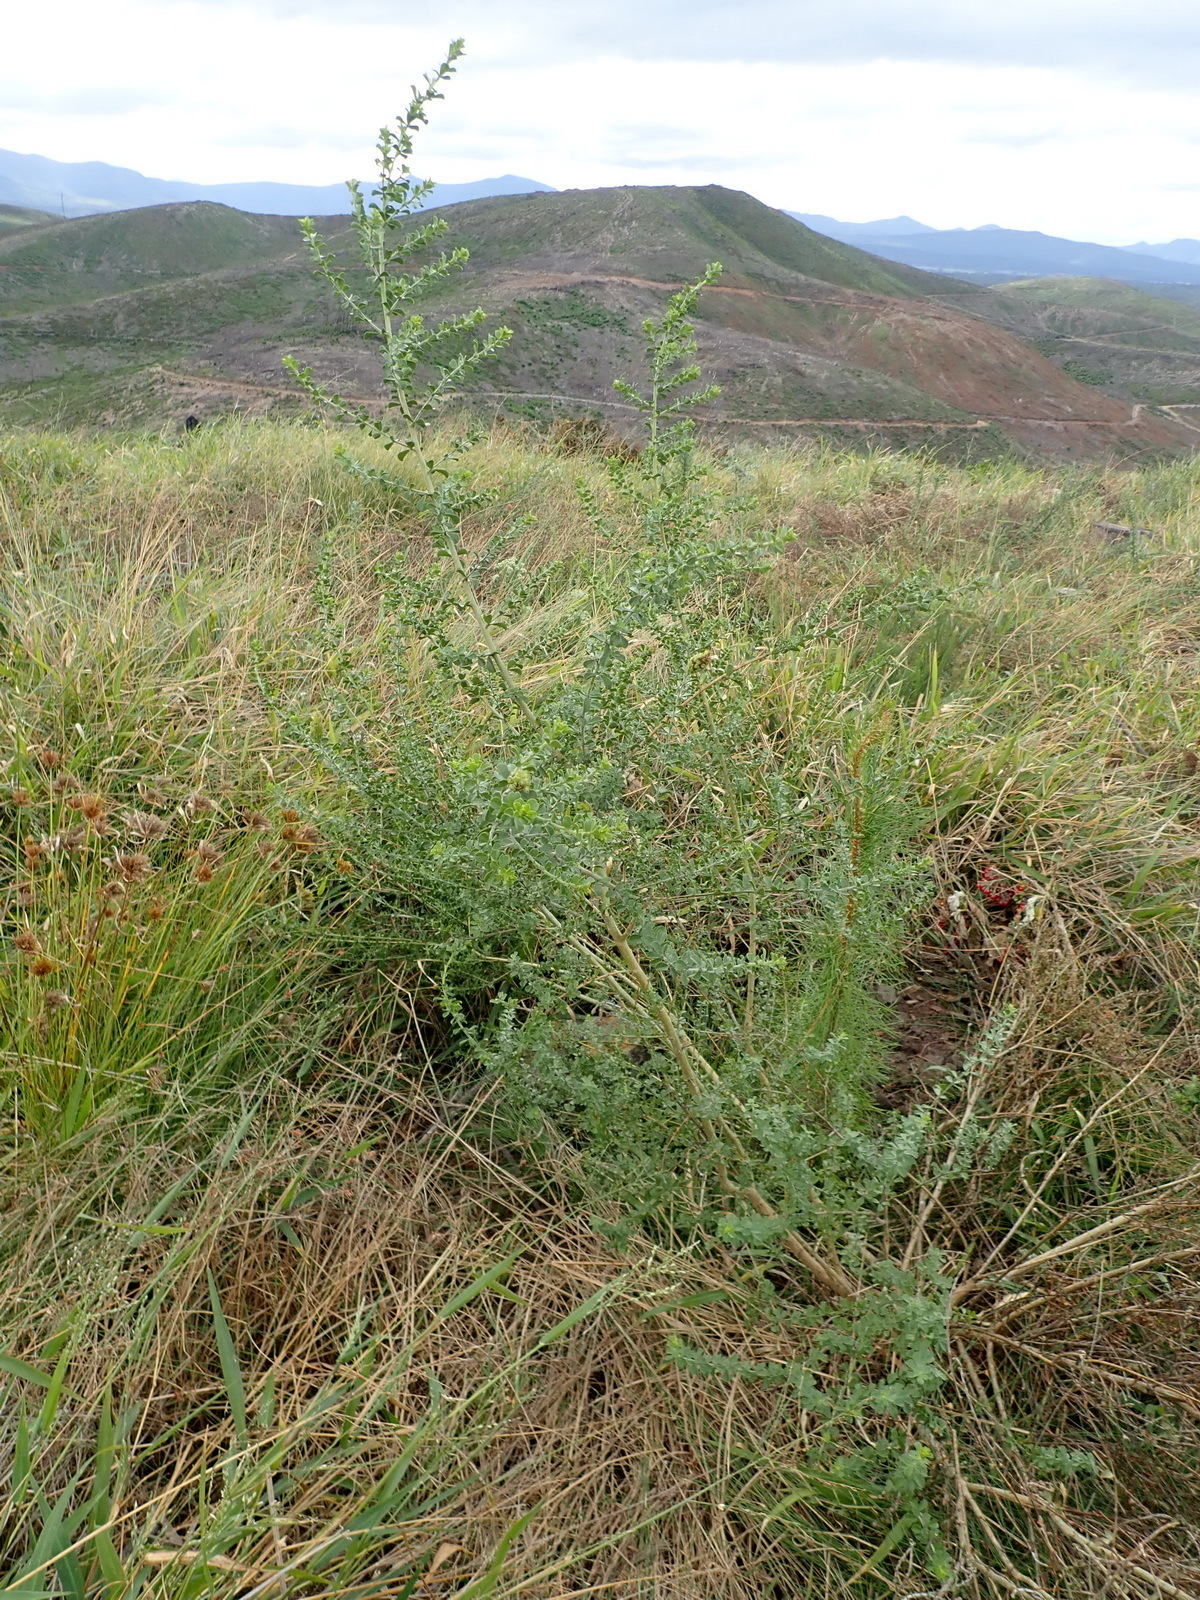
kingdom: Plantae
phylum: Tracheophyta
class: Magnoliopsida
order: Fabales
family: Fabaceae
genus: Psoralea
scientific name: Psoralea stachyera
